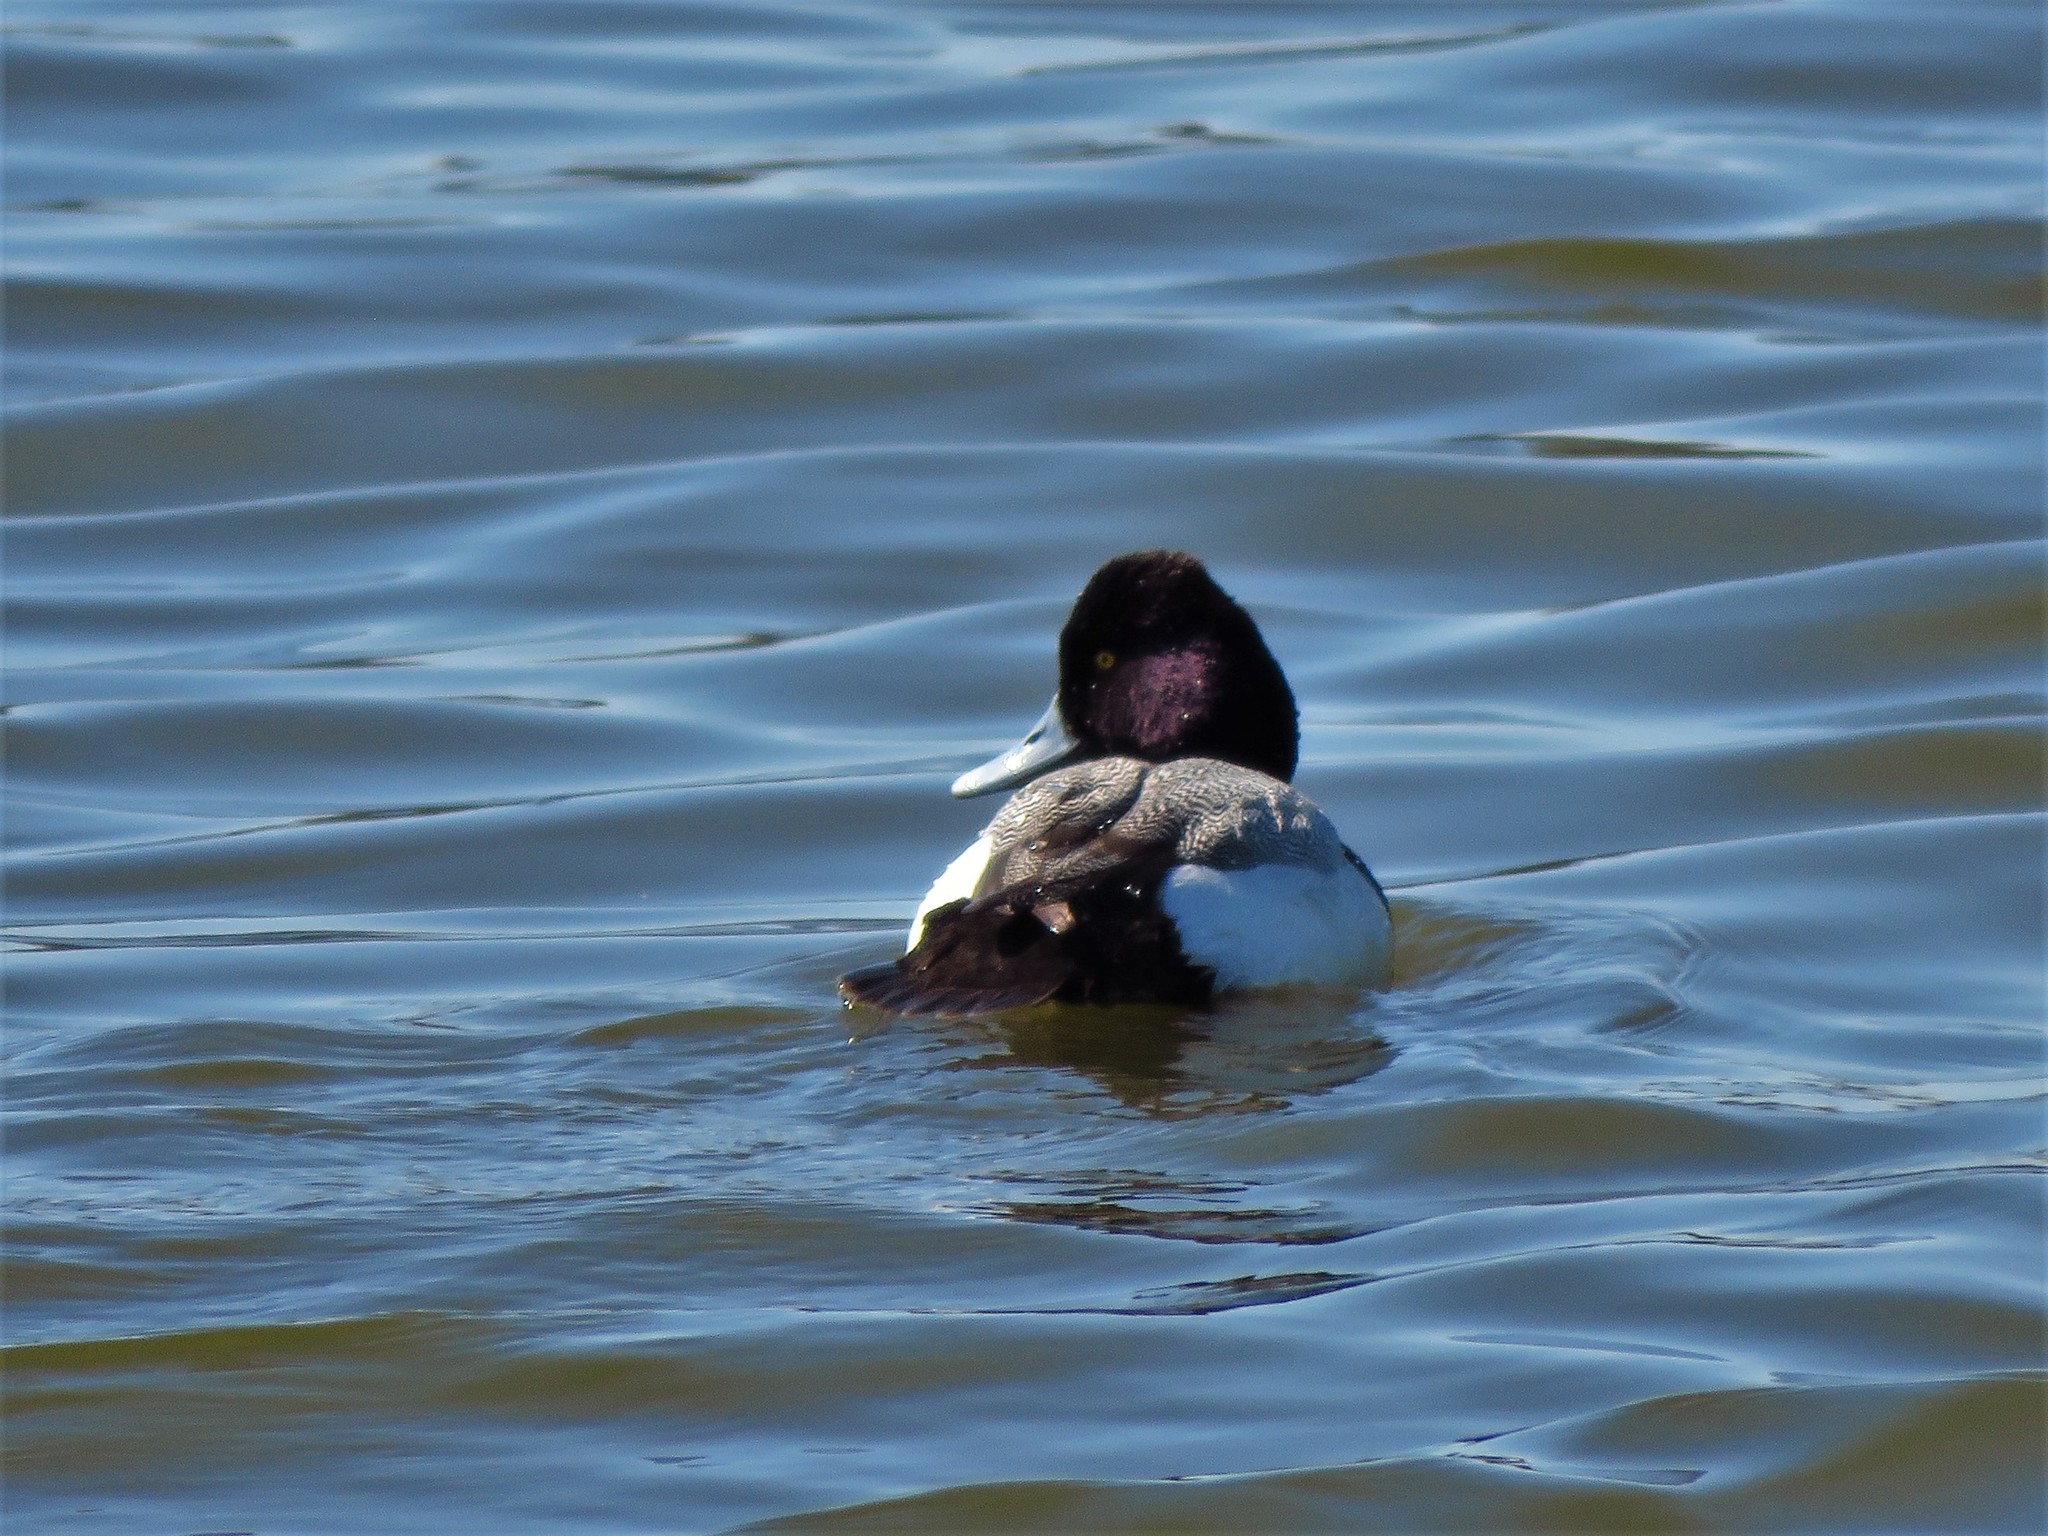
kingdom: Animalia
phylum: Chordata
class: Aves
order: Anseriformes
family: Anatidae
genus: Aythya
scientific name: Aythya affinis
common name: Lesser scaup
